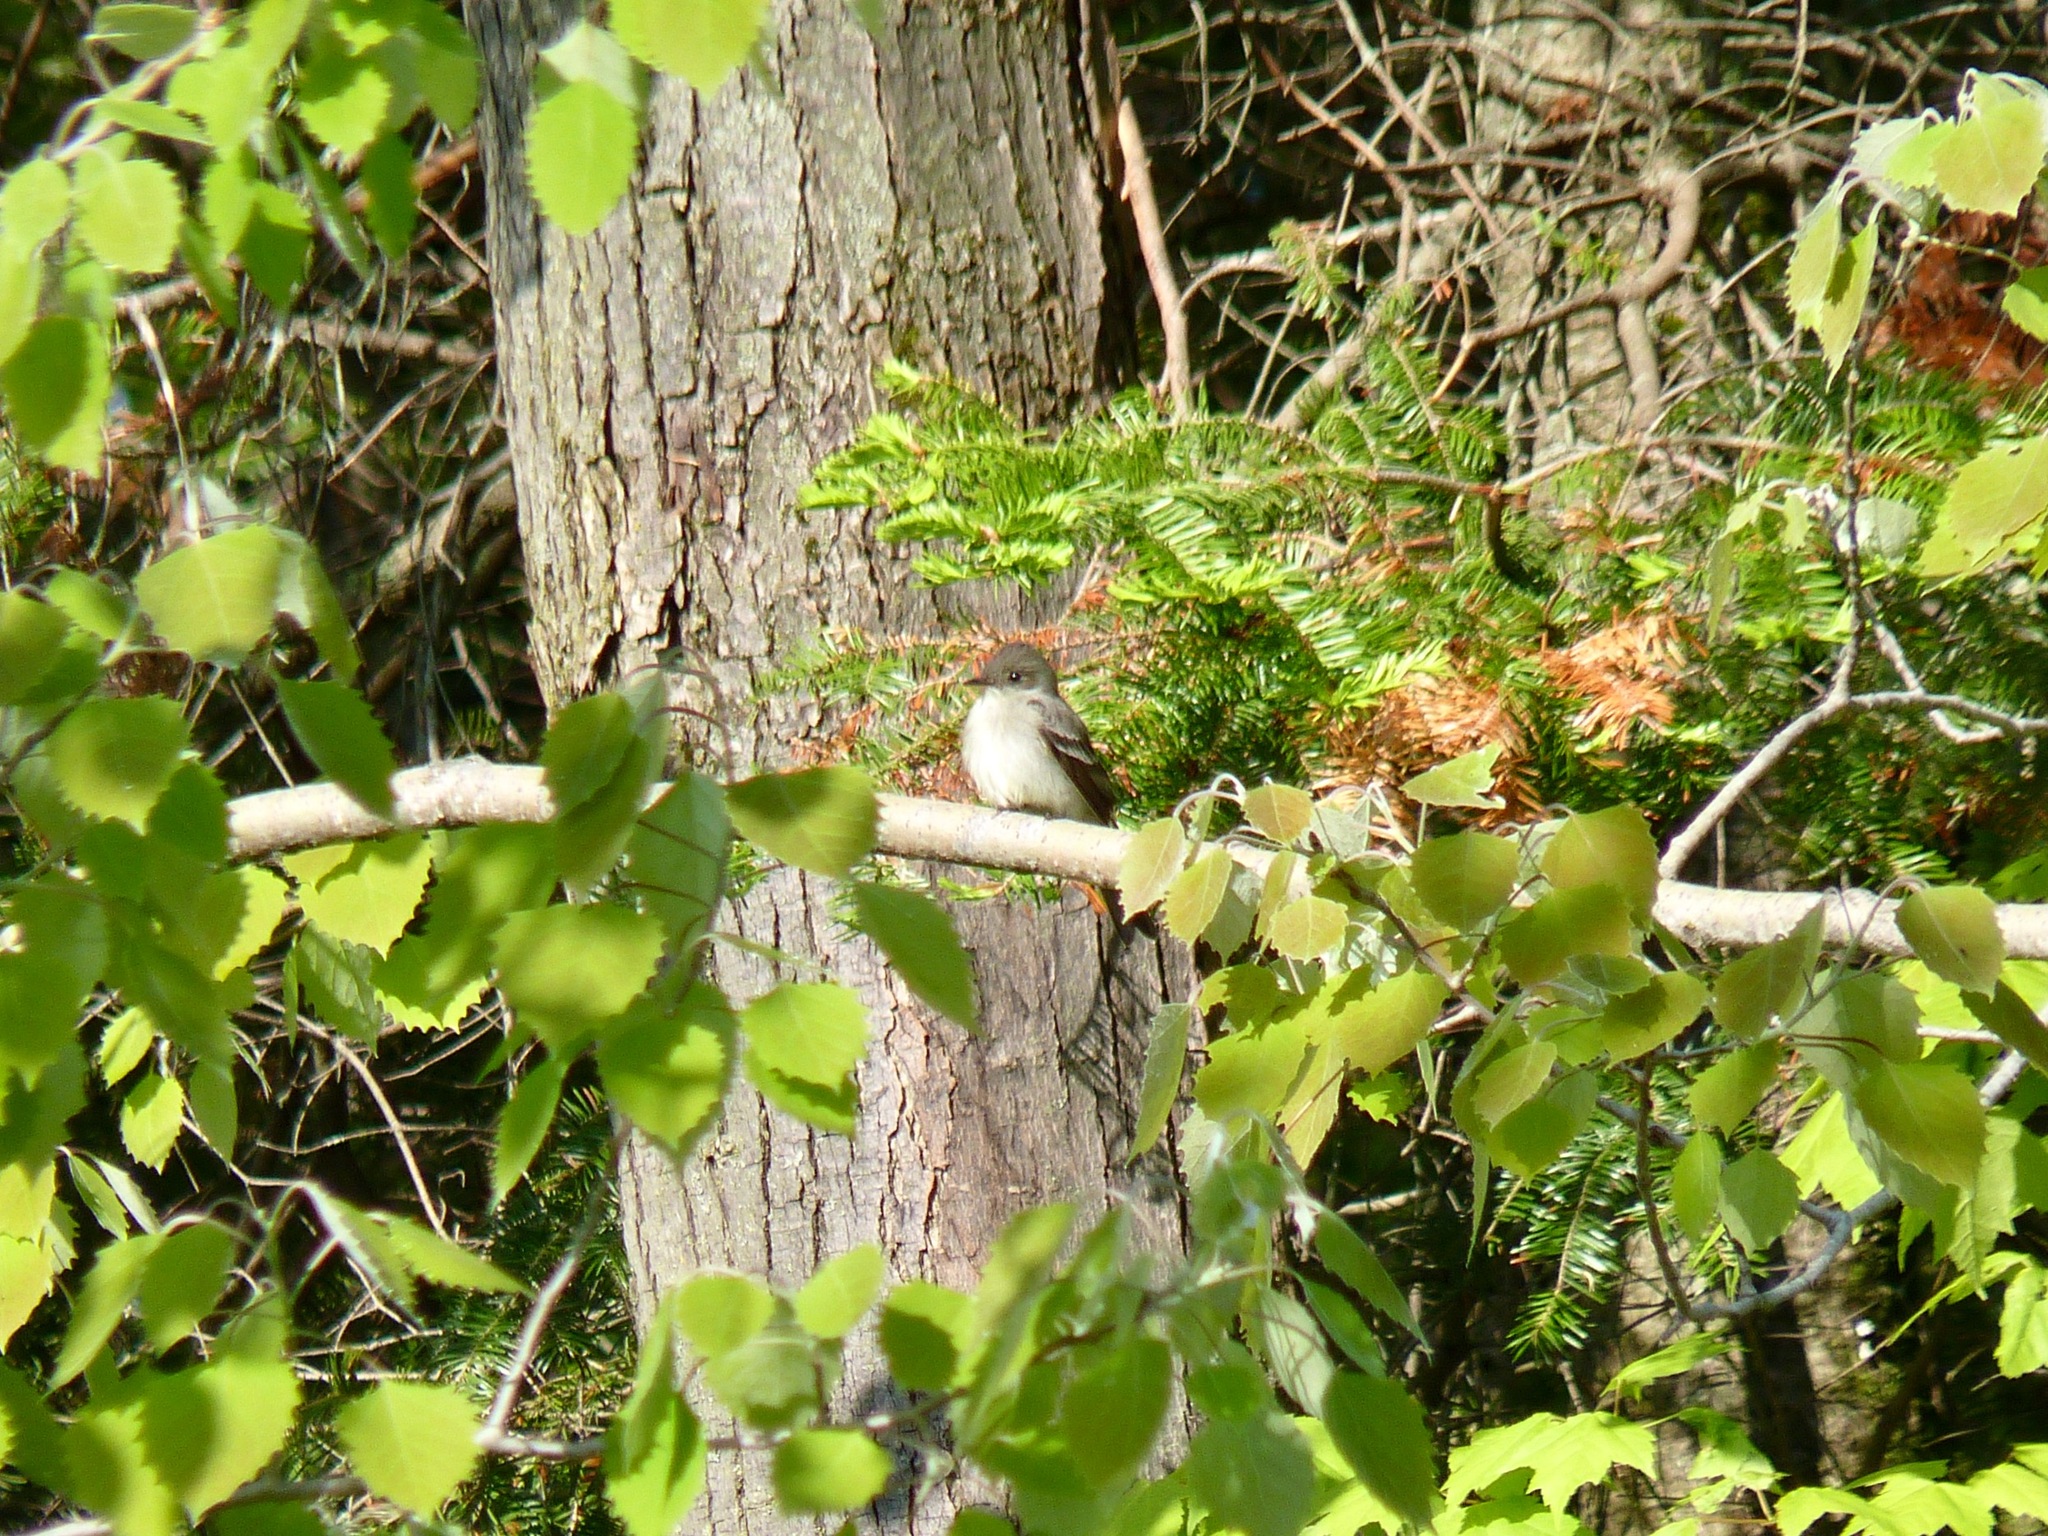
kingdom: Animalia
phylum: Chordata
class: Aves
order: Passeriformes
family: Tyrannidae
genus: Contopus
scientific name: Contopus virens
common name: Eastern wood-pewee
